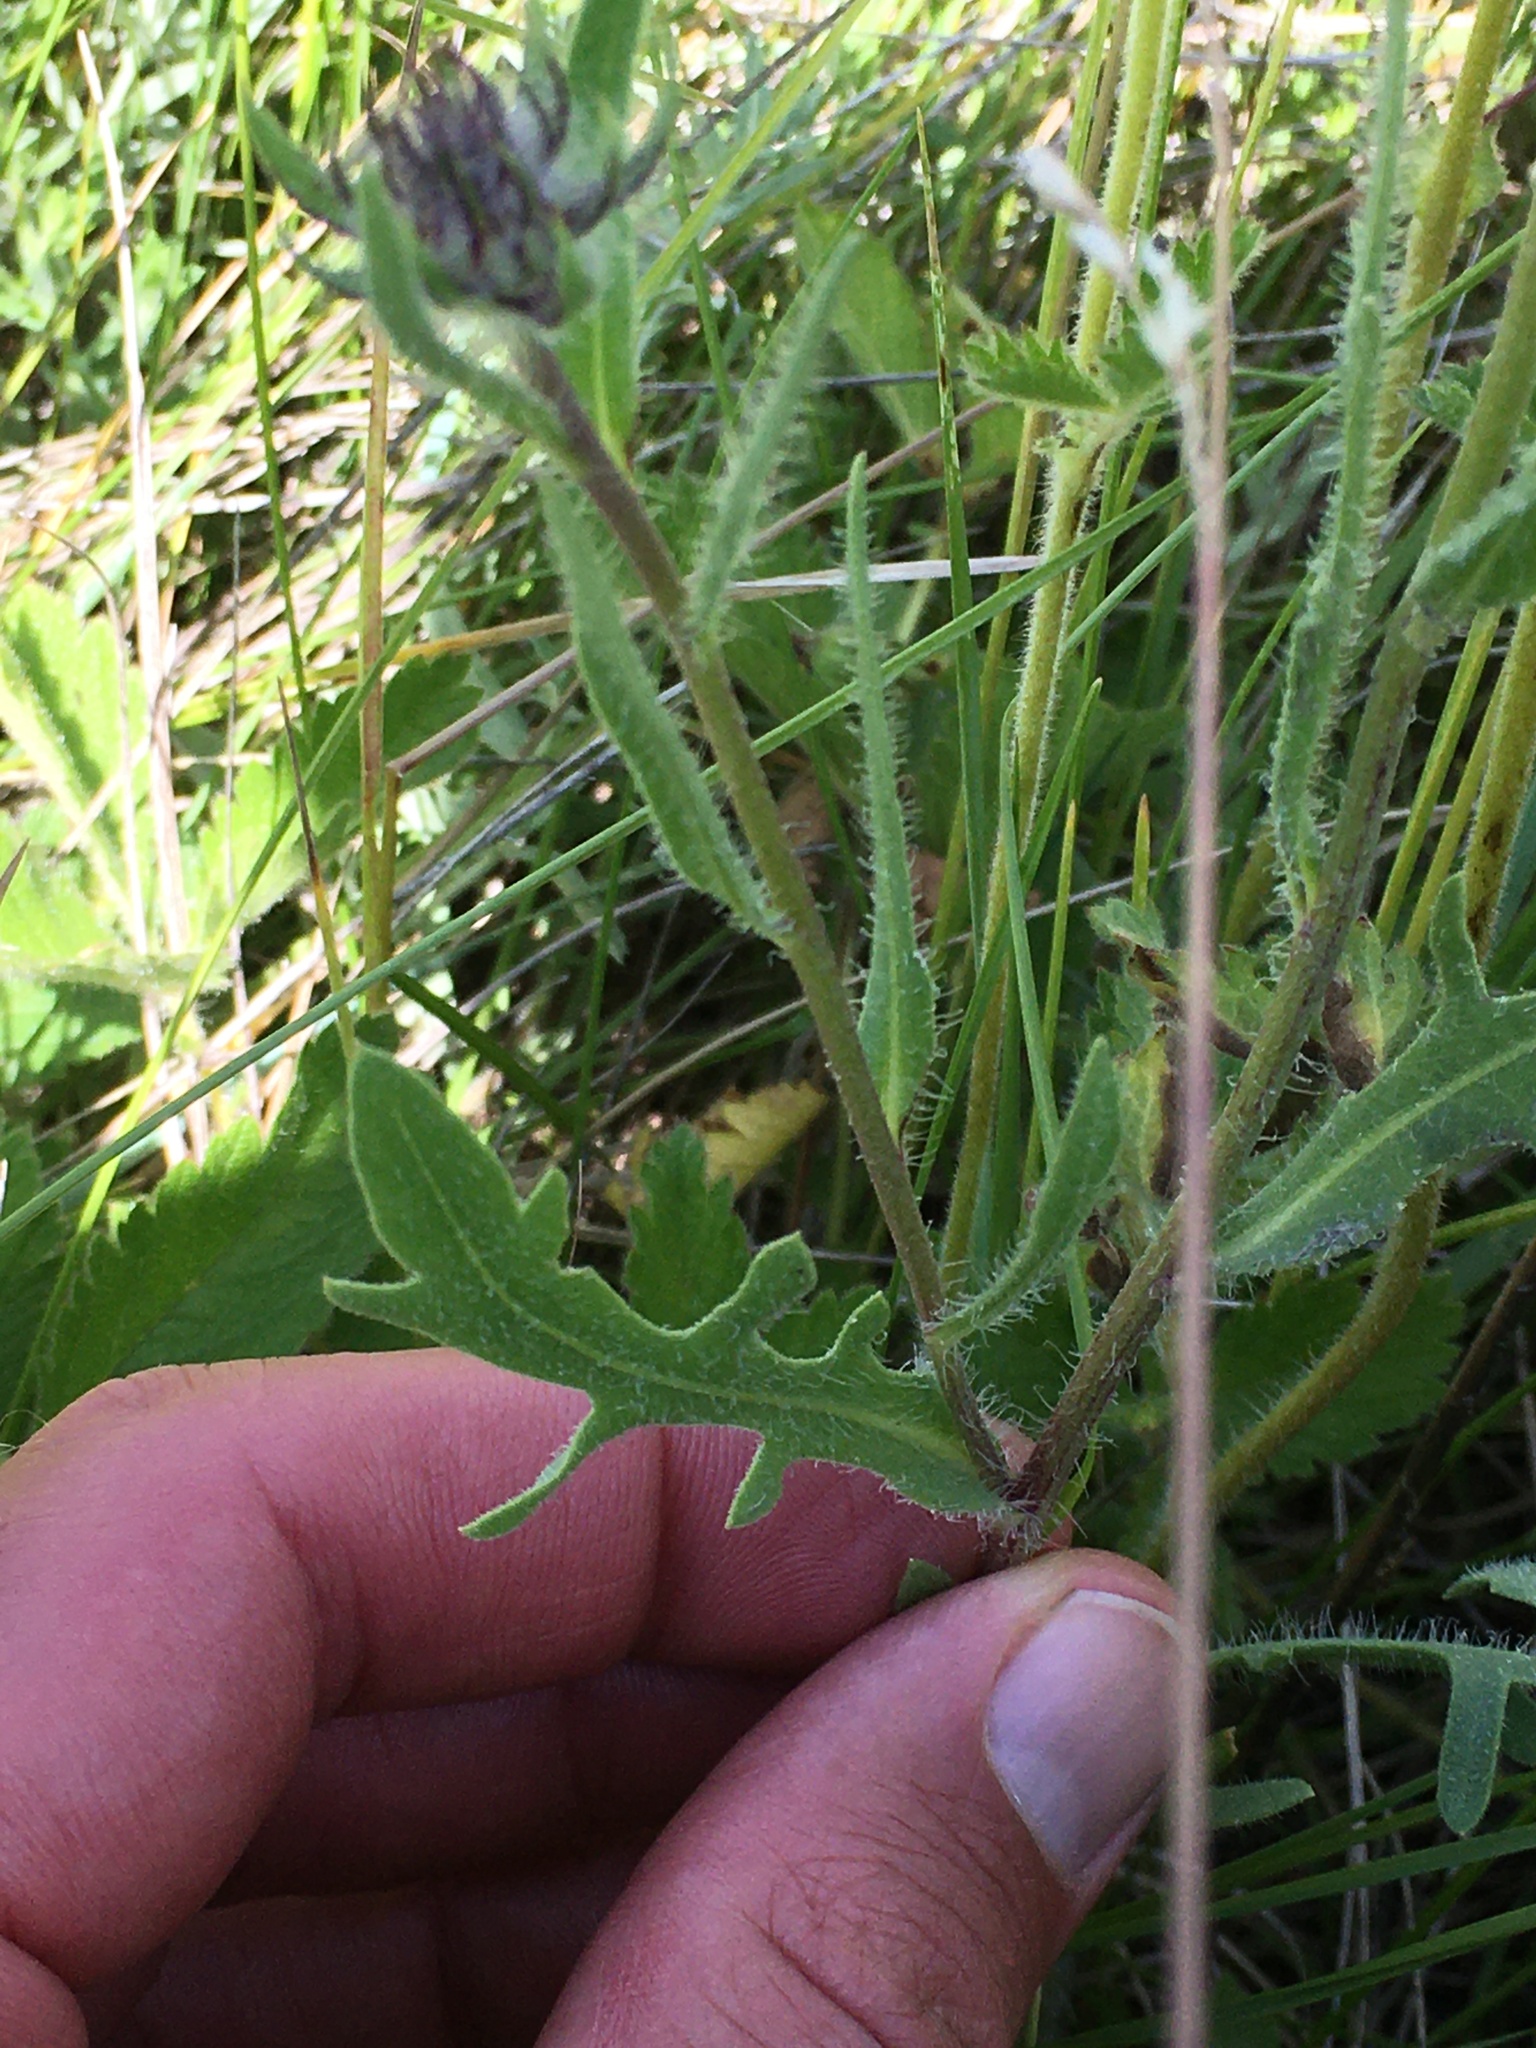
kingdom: Plantae
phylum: Tracheophyta
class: Magnoliopsida
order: Asterales
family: Asteraceae
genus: Gaillardia
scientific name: Gaillardia aristata
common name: Blanket-flower
